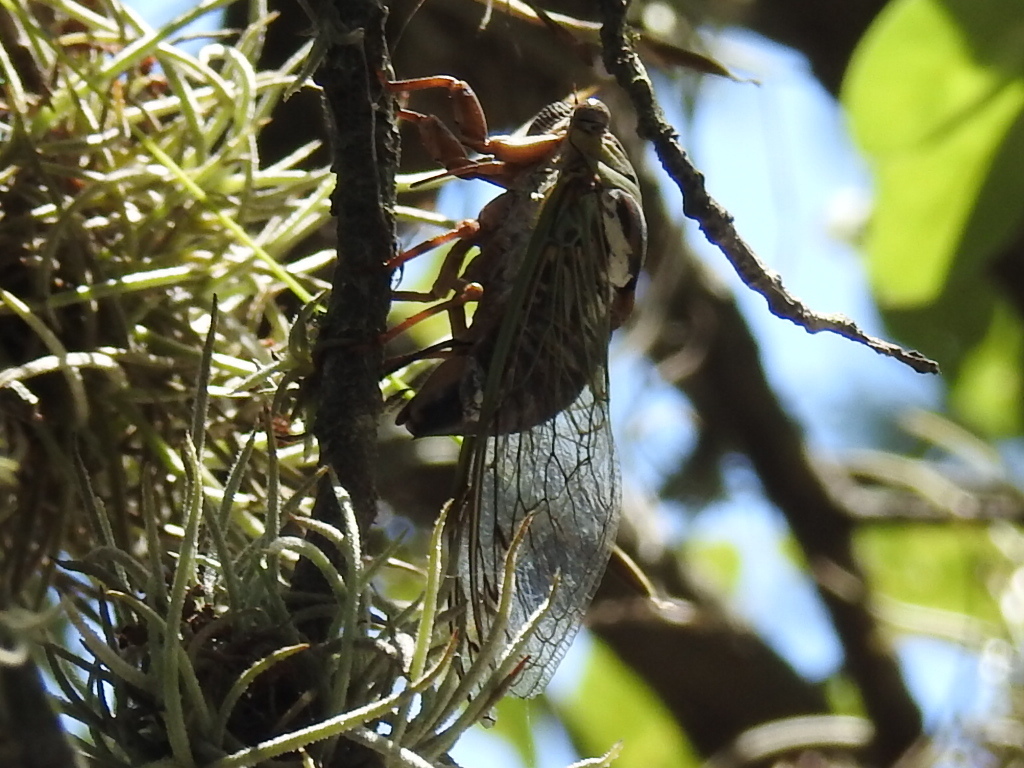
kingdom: Animalia
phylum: Arthropoda
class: Insecta
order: Hemiptera
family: Cicadidae
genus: Megatibicen
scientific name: Megatibicen resh
